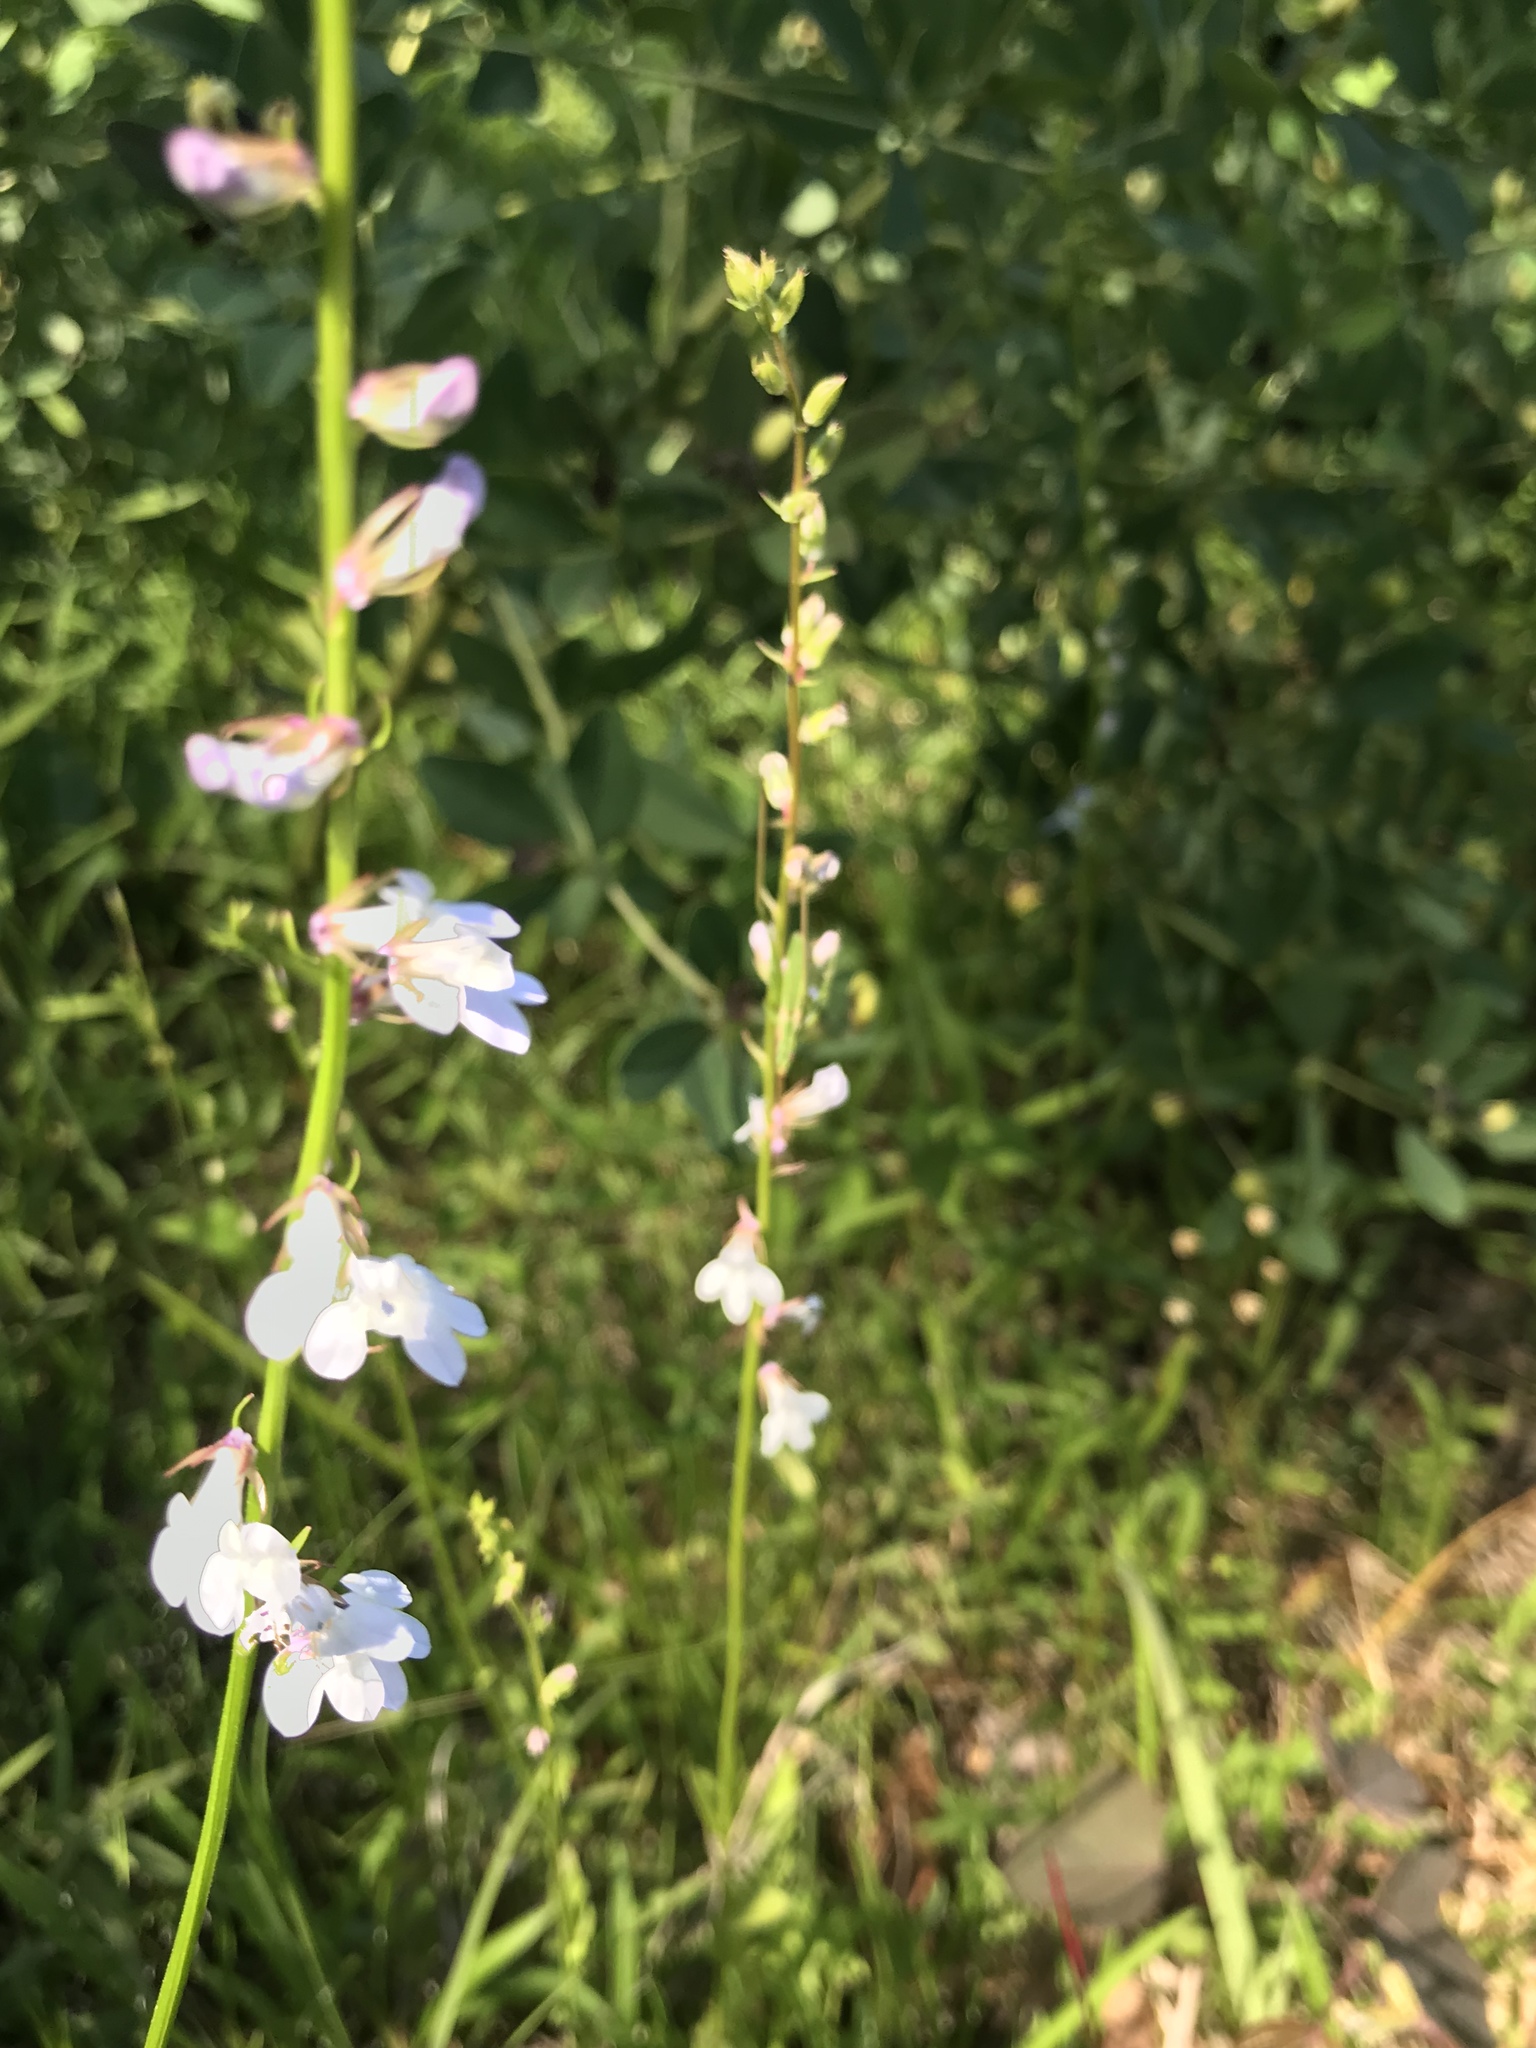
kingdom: Plantae
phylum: Tracheophyta
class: Magnoliopsida
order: Asterales
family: Campanulaceae
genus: Lobelia
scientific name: Lobelia appendiculata
